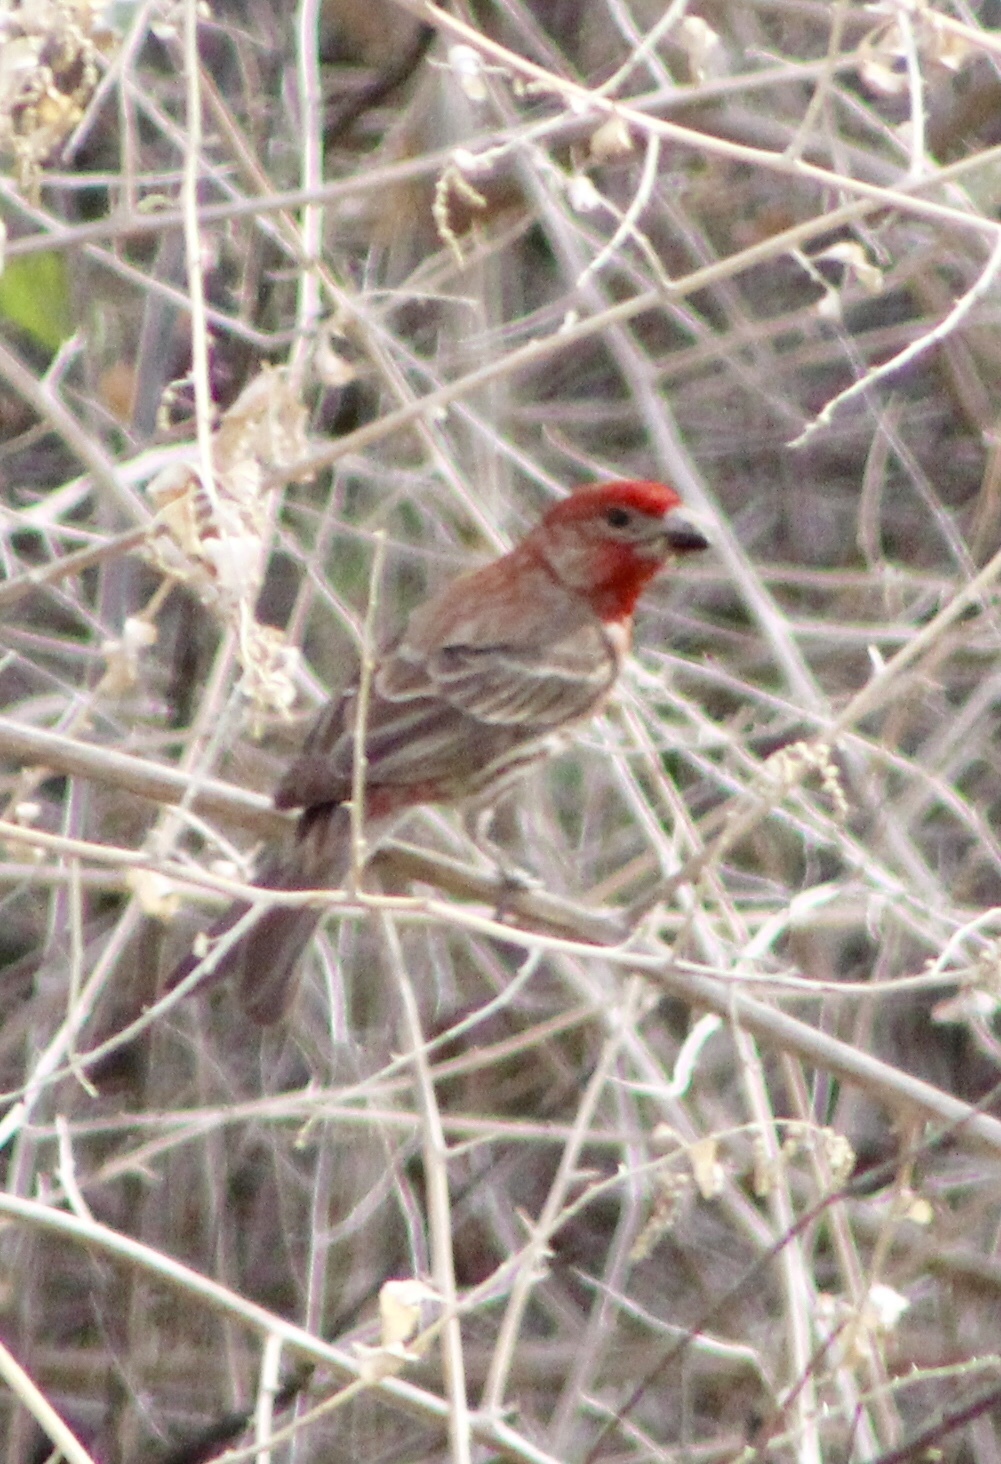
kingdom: Animalia
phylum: Chordata
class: Aves
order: Passeriformes
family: Fringillidae
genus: Haemorhous
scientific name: Haemorhous mexicanus
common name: House finch
